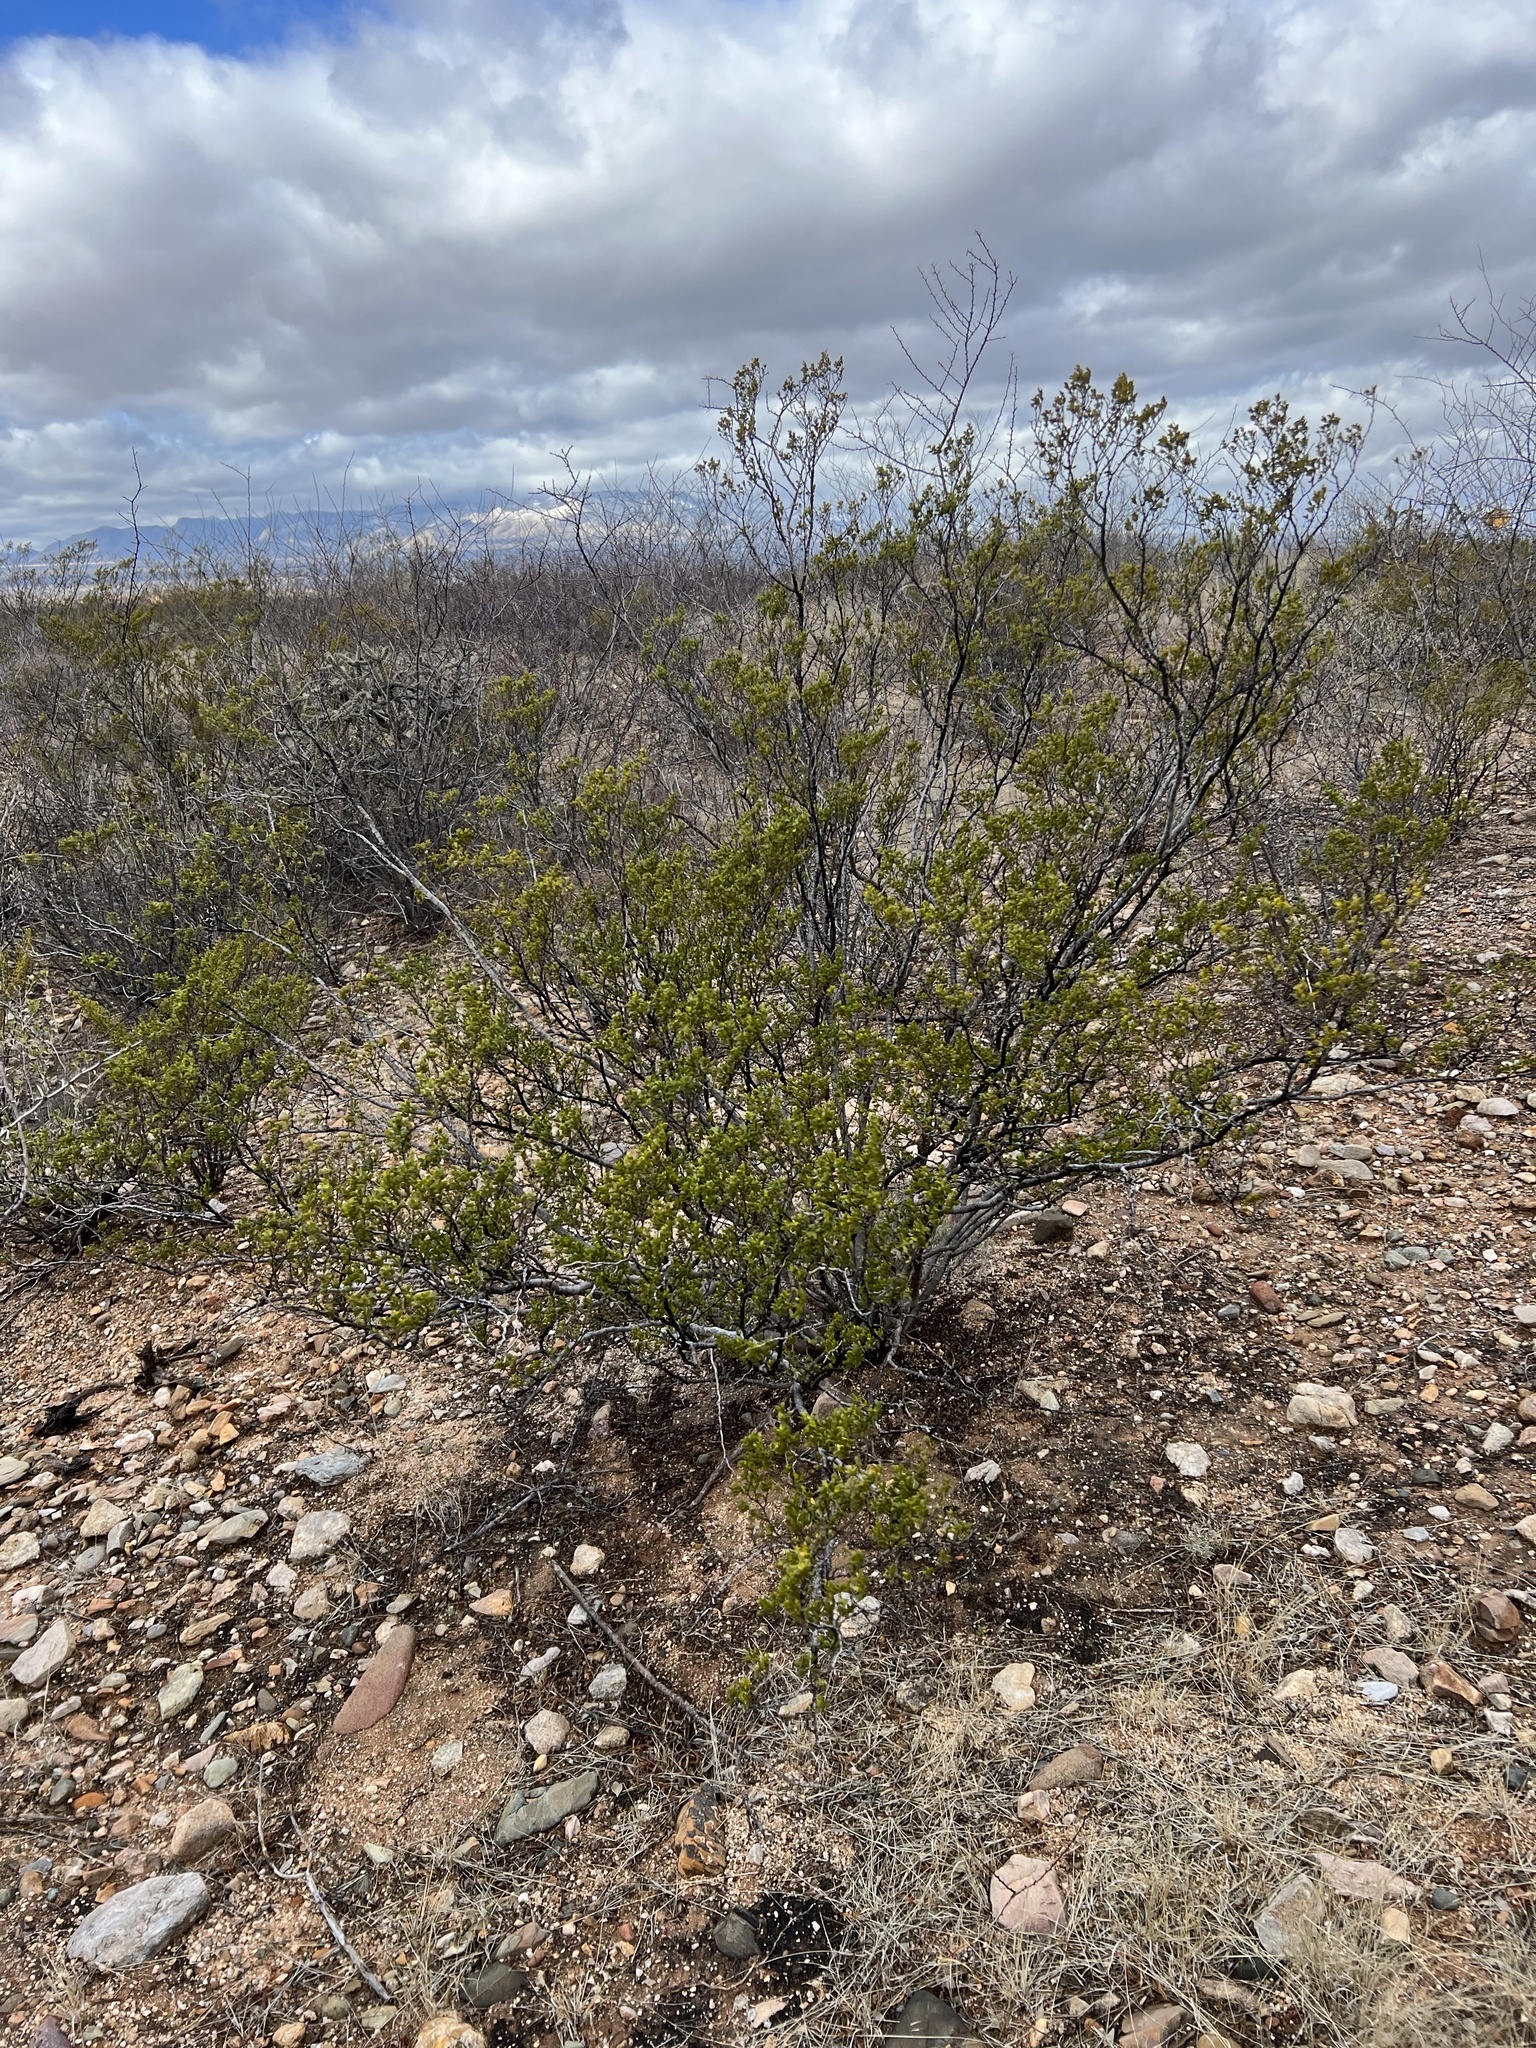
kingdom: Plantae
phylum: Tracheophyta
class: Magnoliopsida
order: Zygophyllales
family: Zygophyllaceae
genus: Larrea
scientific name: Larrea tridentata
